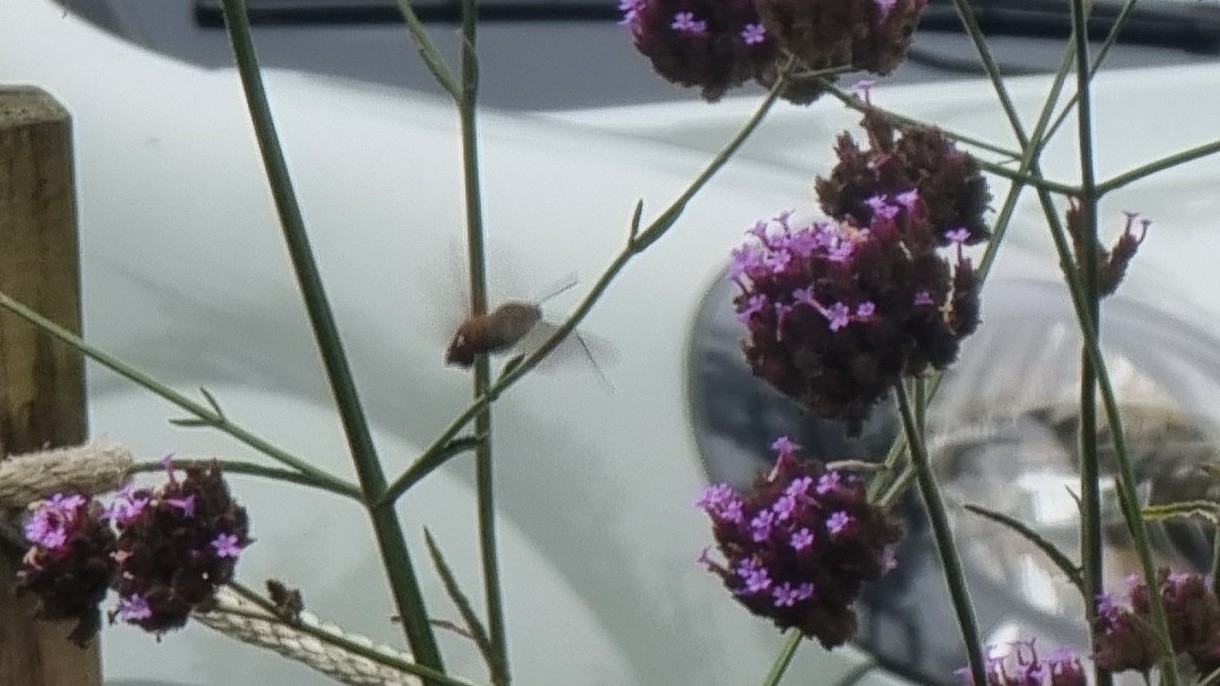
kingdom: Animalia
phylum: Arthropoda
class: Insecta
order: Lepidoptera
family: Sphingidae
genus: Macroglossum
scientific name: Macroglossum stellatarum
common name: Humming-bird hawk-moth
